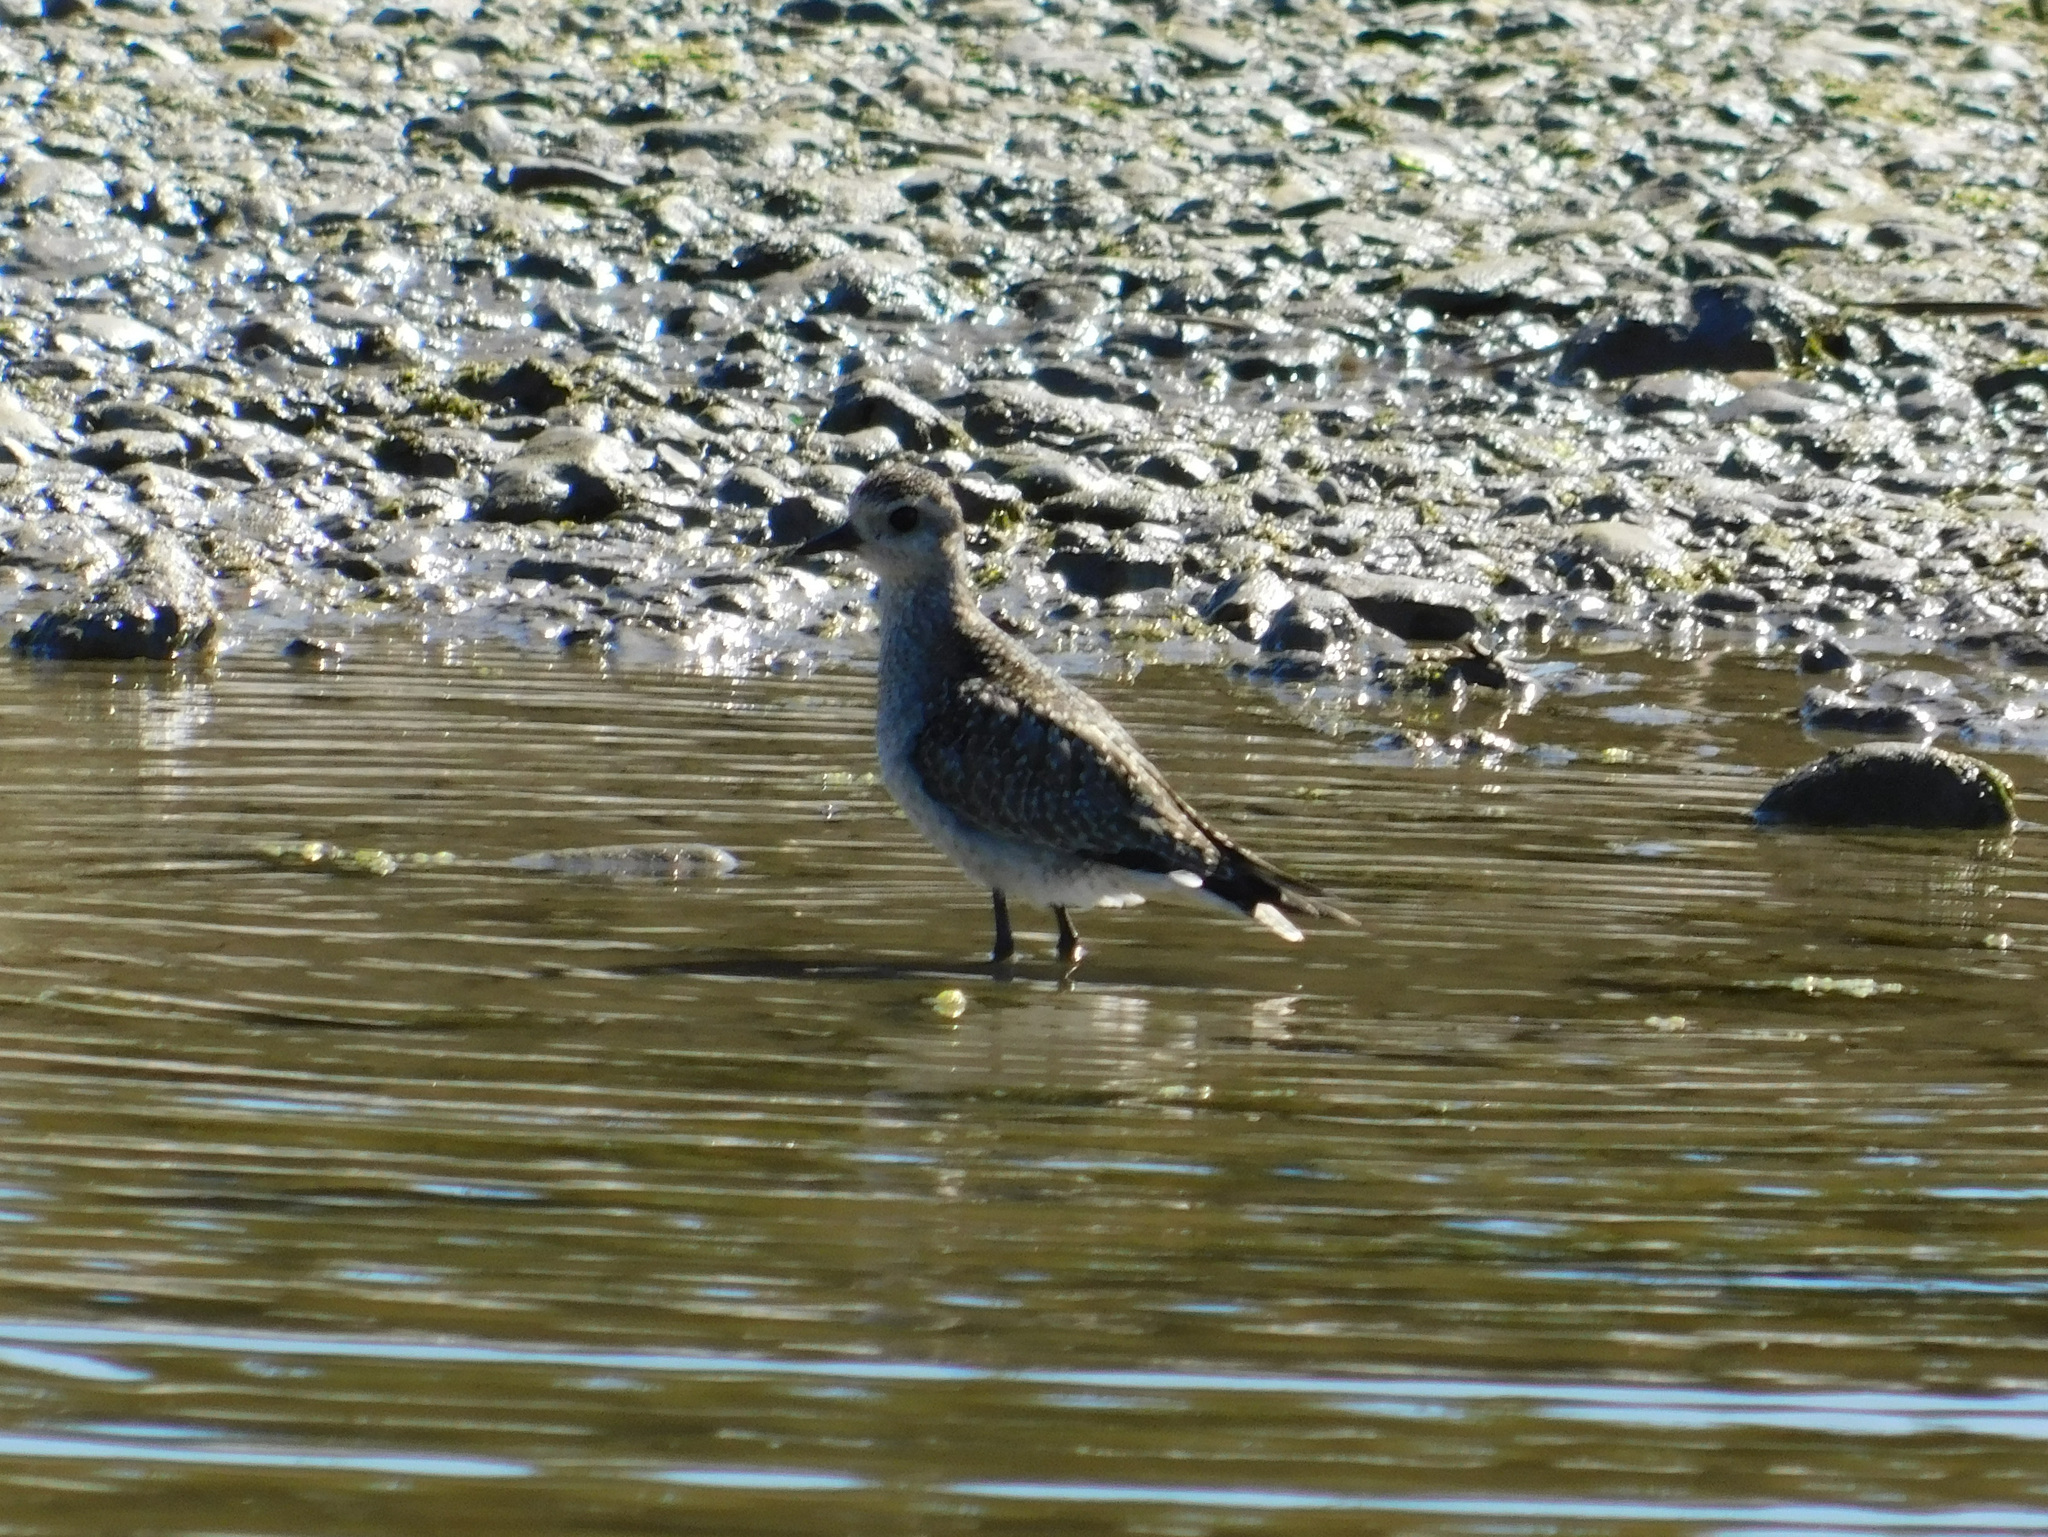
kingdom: Animalia
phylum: Chordata
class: Aves
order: Charadriiformes
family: Charadriidae
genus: Pluvialis
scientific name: Pluvialis dominica
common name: American golden plover
